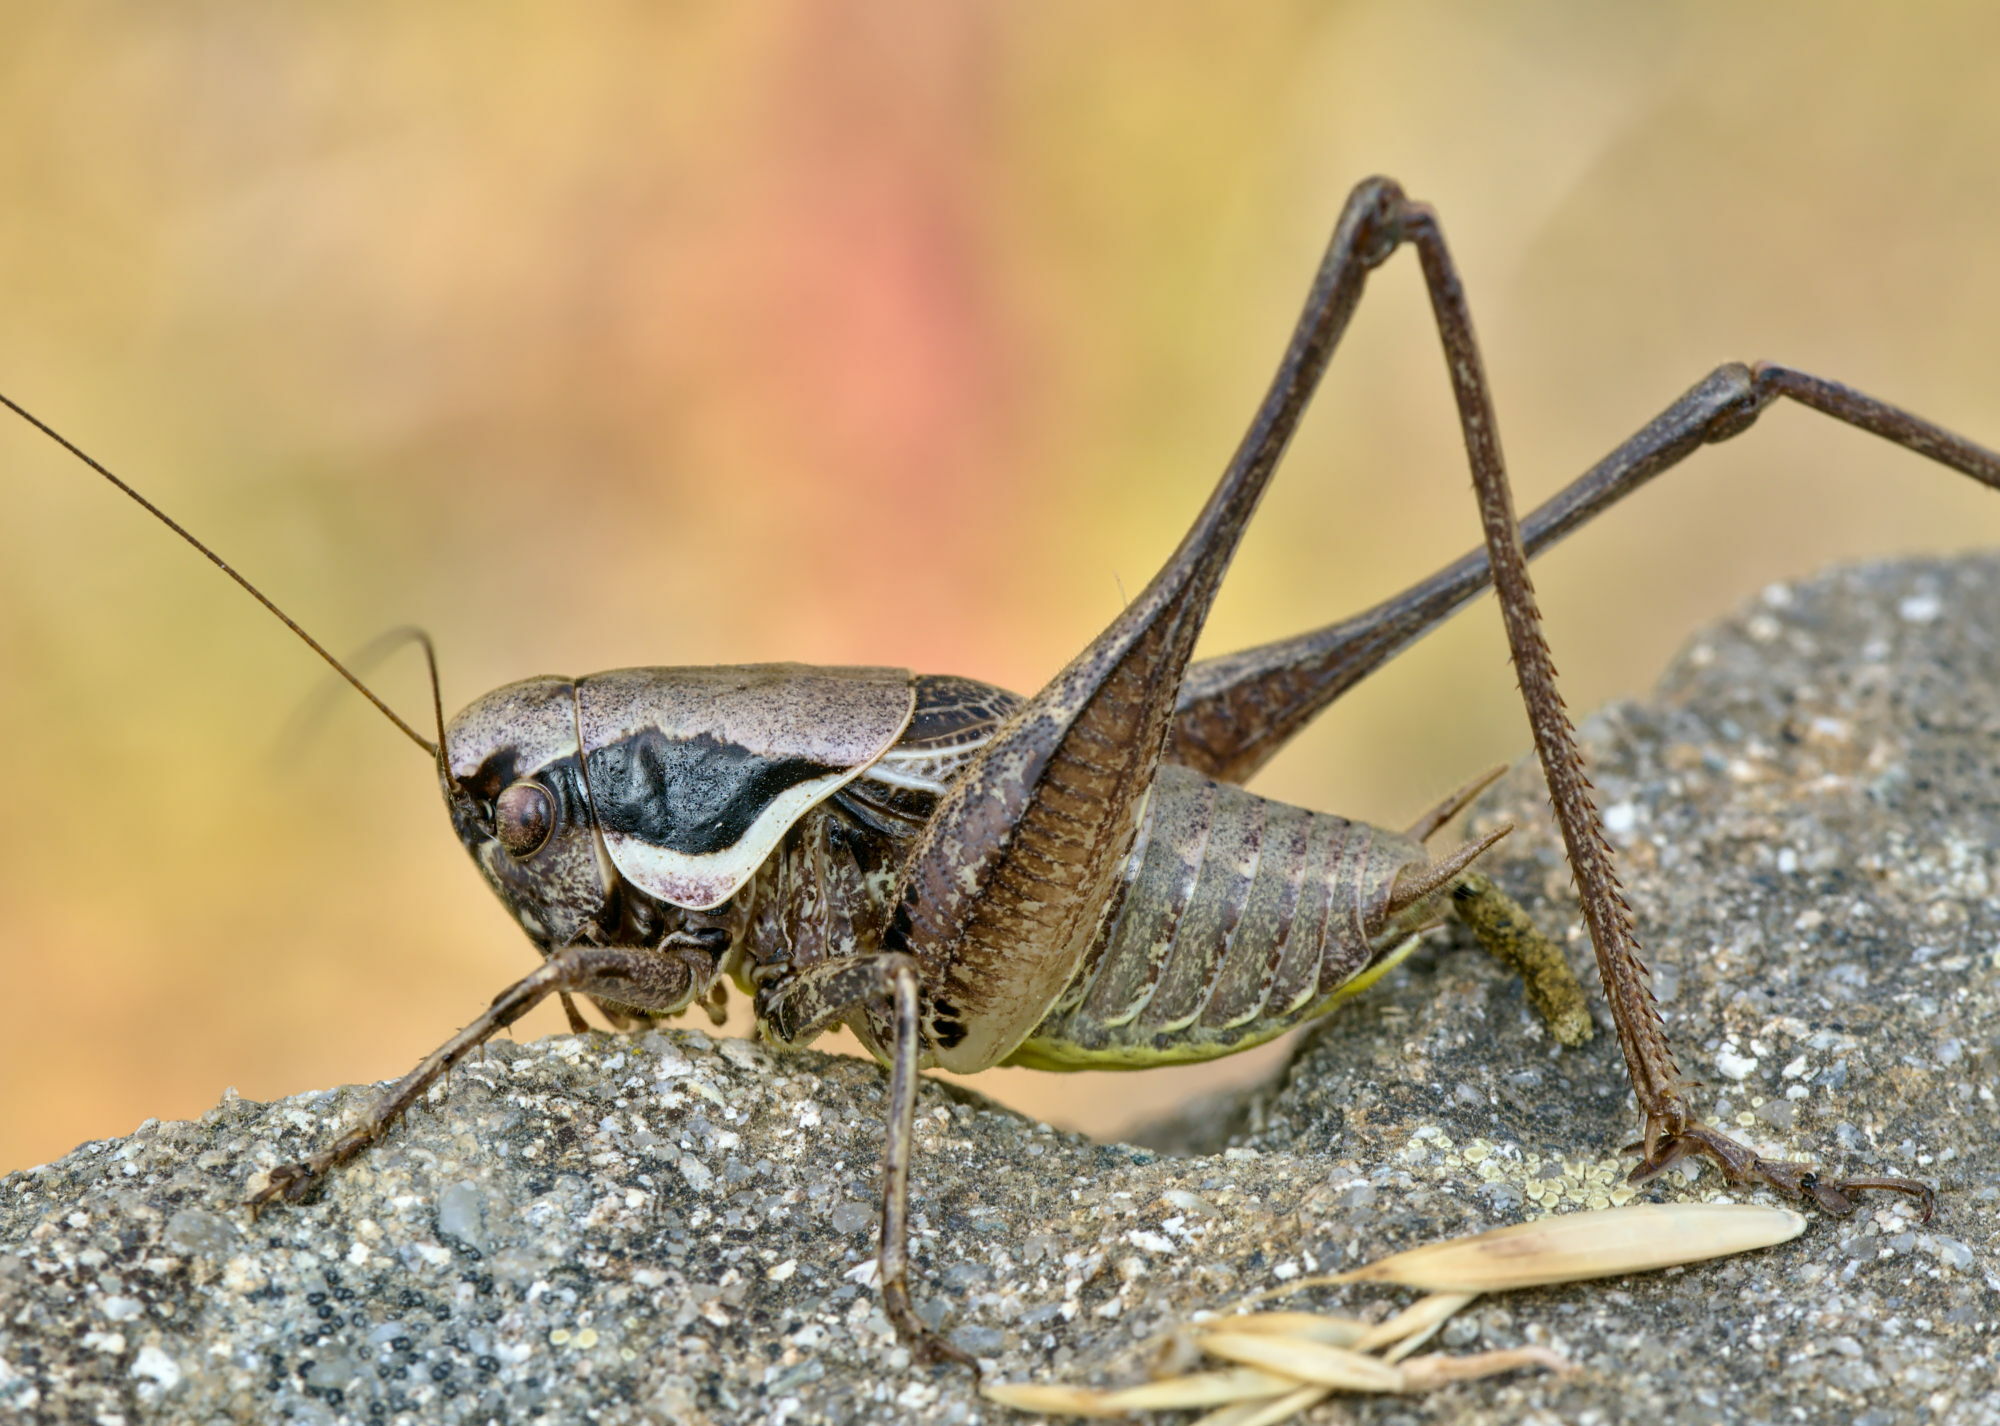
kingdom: Animalia
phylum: Arthropoda
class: Insecta
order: Orthoptera
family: Tettigoniidae
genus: Pholidoptera
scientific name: Pholidoptera fallax
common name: Fischer's bush-cricket
